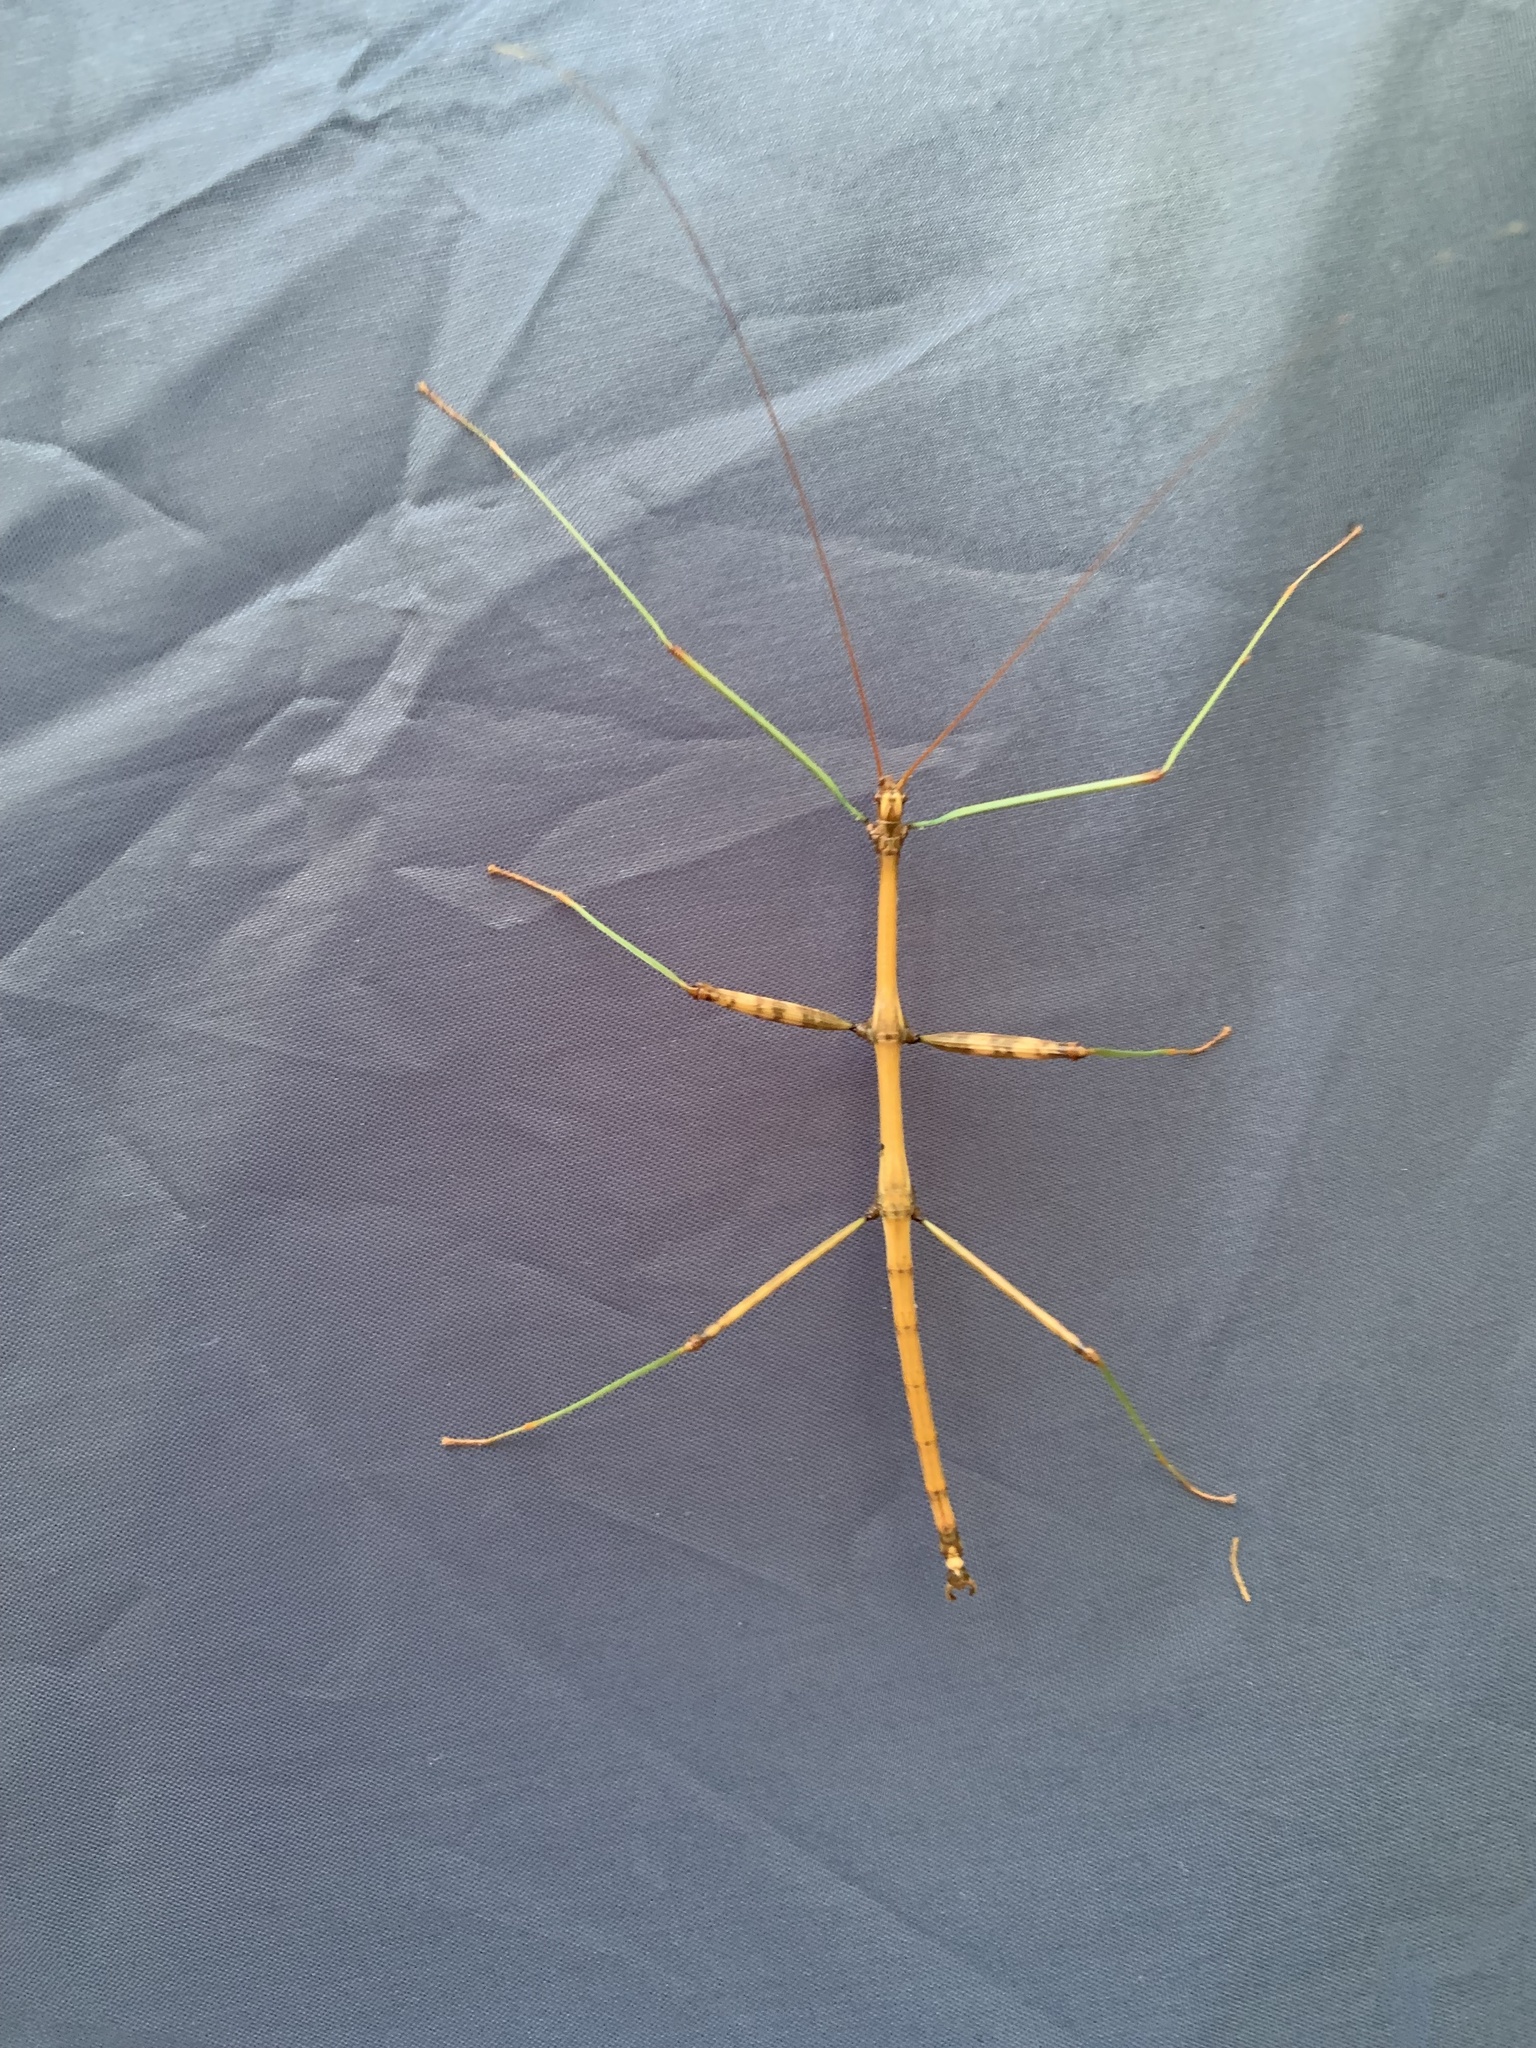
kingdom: Animalia
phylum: Arthropoda
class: Insecta
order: Phasmida
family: Diapheromeridae
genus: Diapheromera
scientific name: Diapheromera femorata
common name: Common american walkingstick
